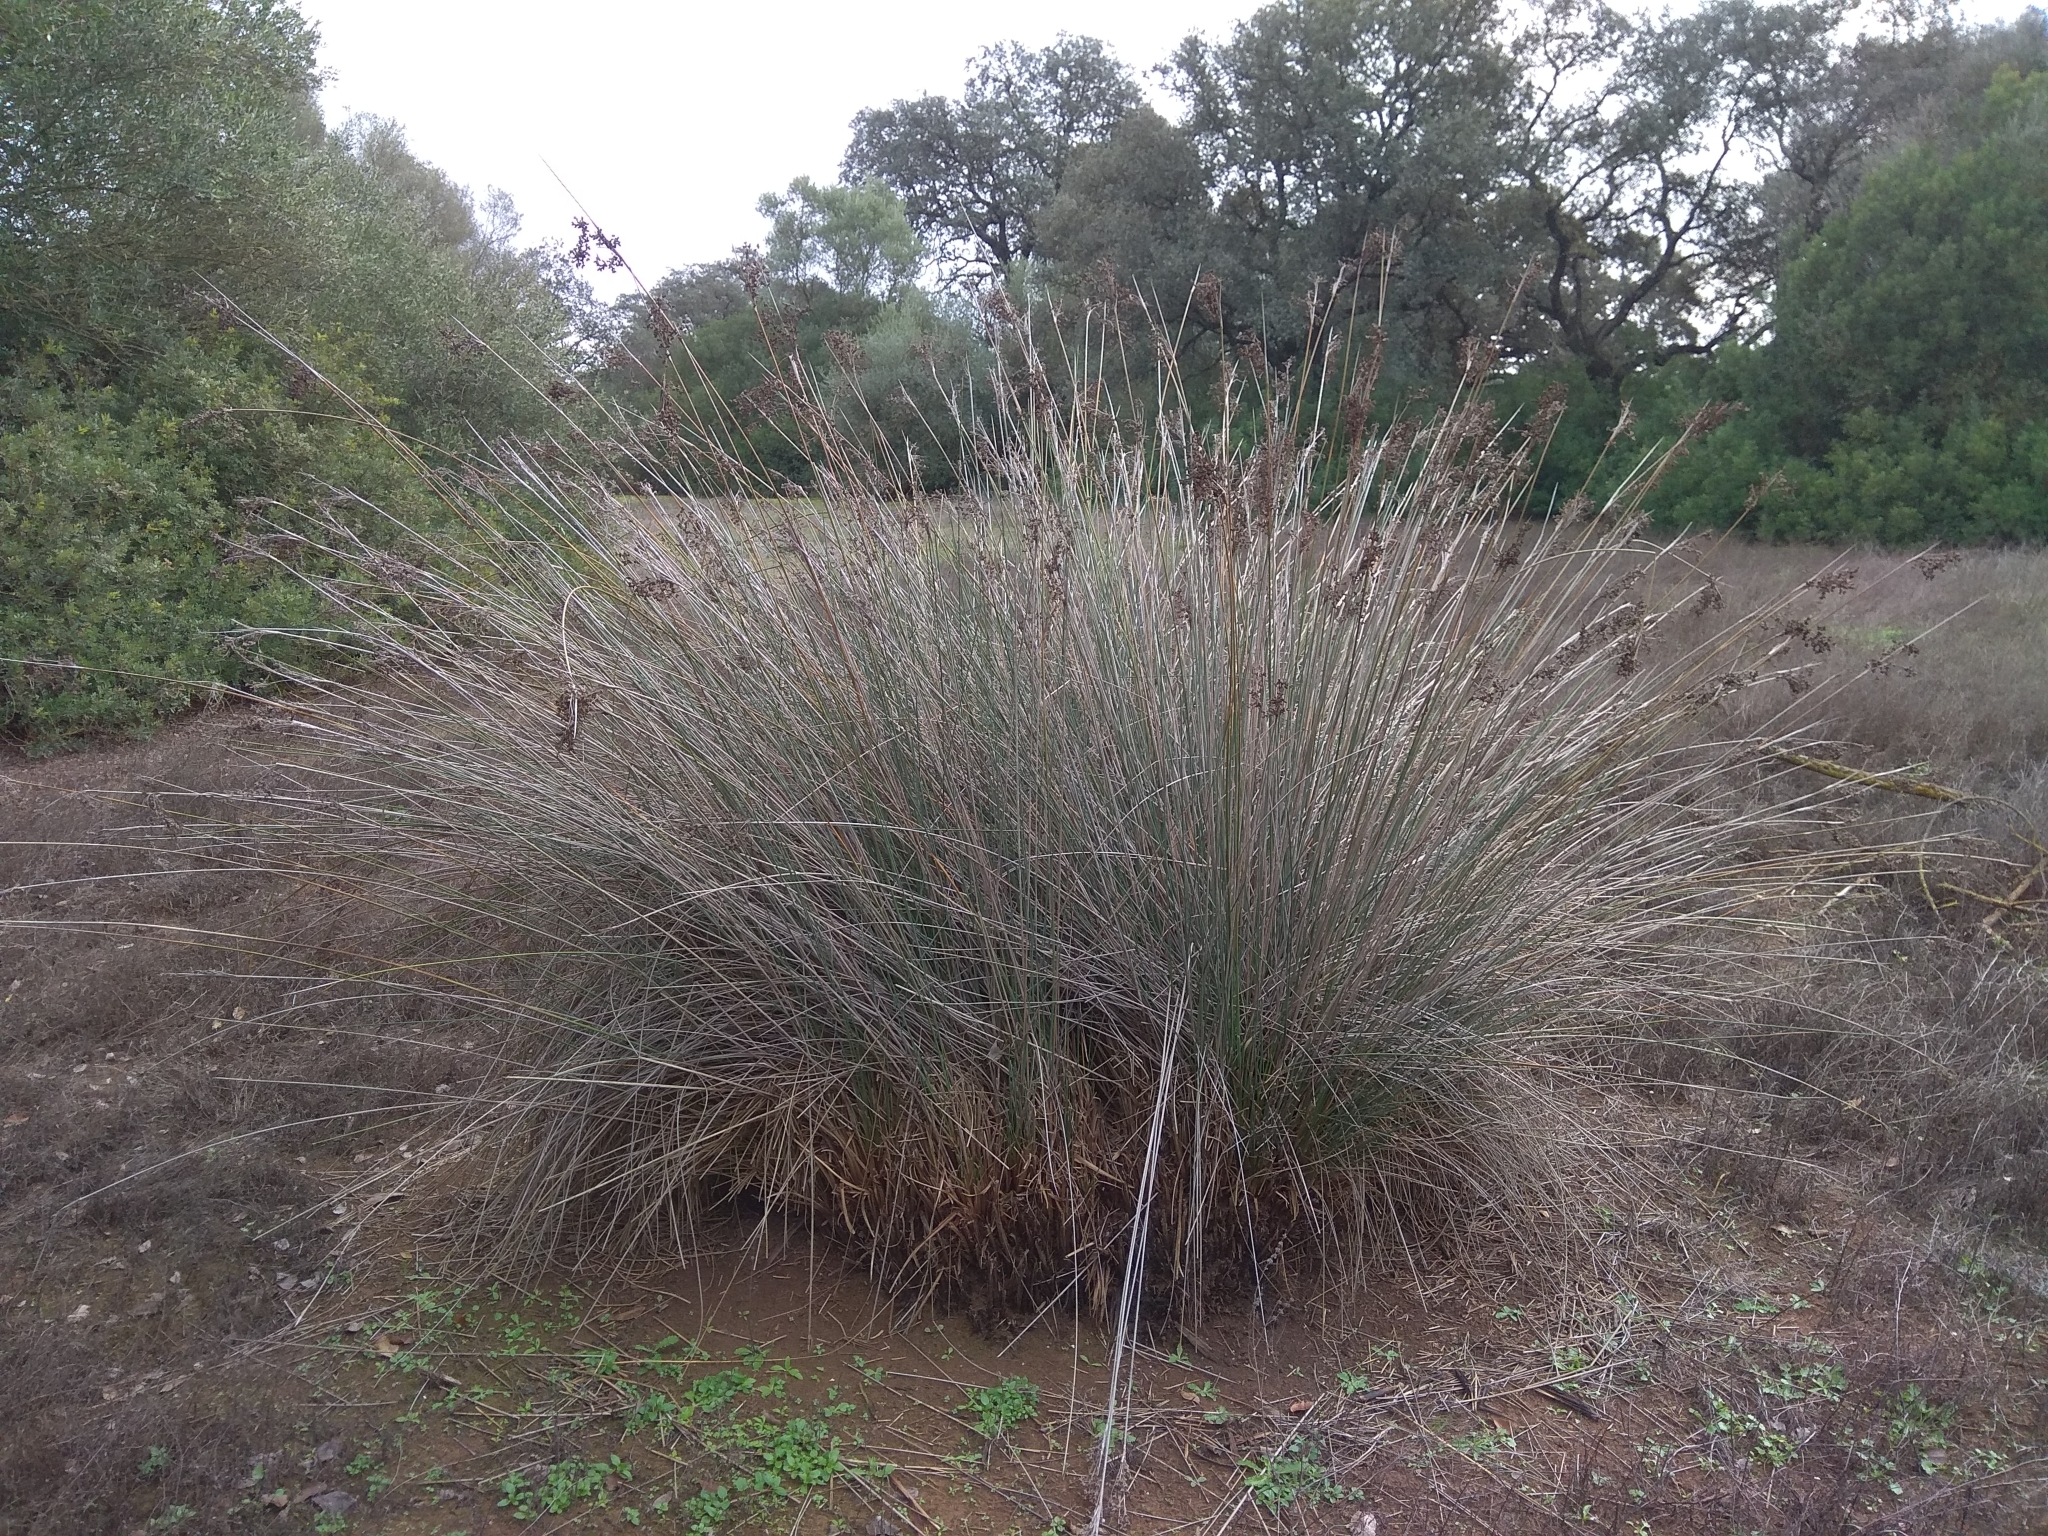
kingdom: Plantae
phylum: Tracheophyta
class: Liliopsida
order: Poales
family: Juncaceae
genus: Juncus
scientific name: Juncus acutus
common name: Sharp rush
